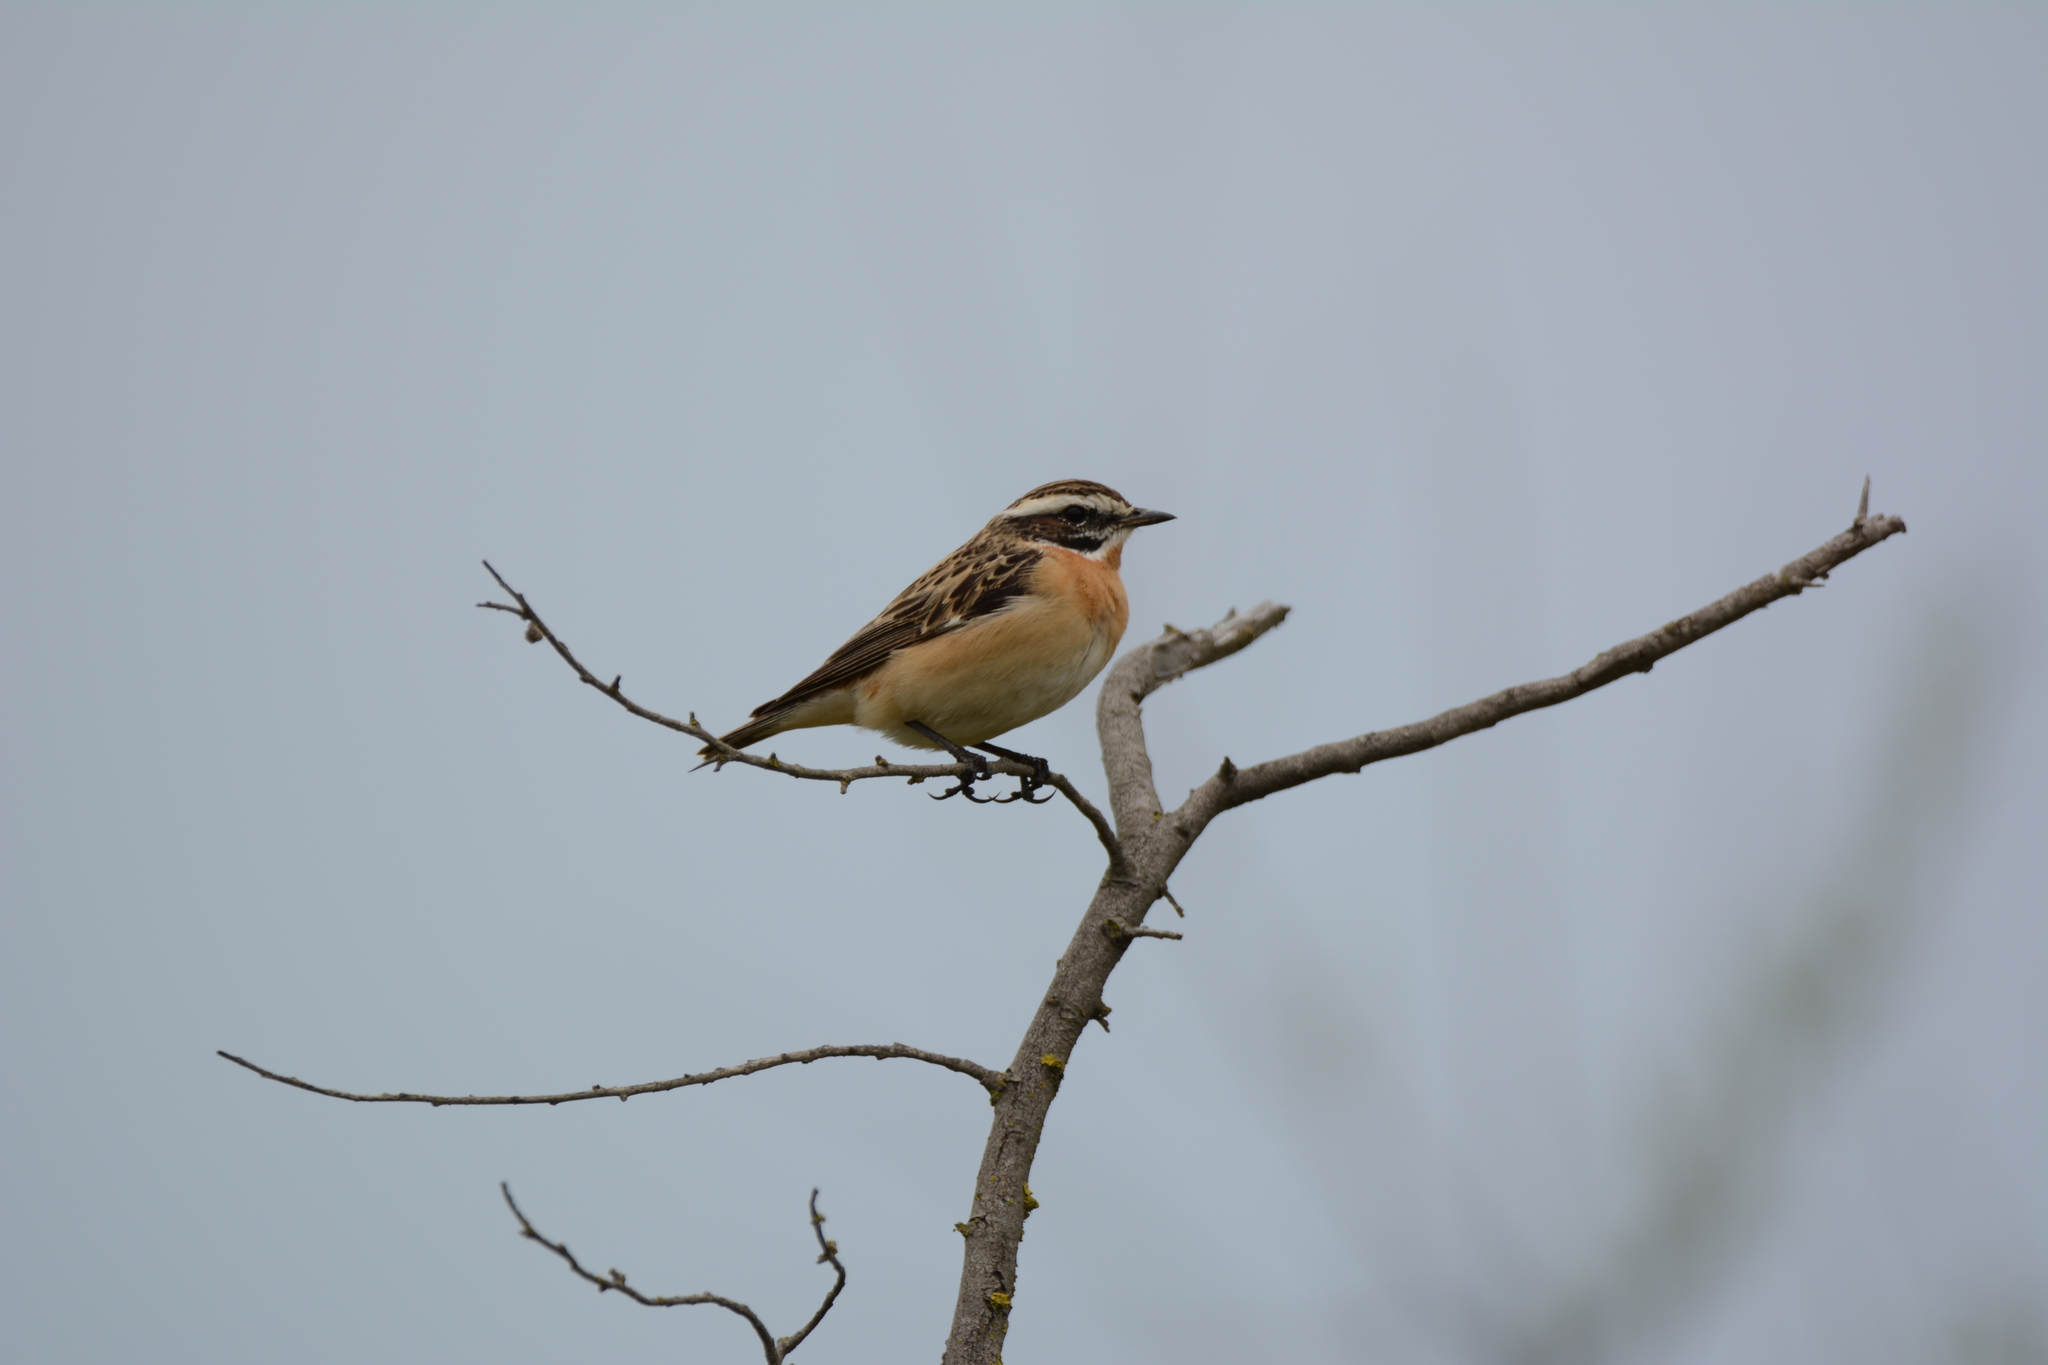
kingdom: Animalia
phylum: Chordata
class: Aves
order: Passeriformes
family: Muscicapidae
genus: Saxicola
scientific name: Saxicola rubetra
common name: Whinchat
